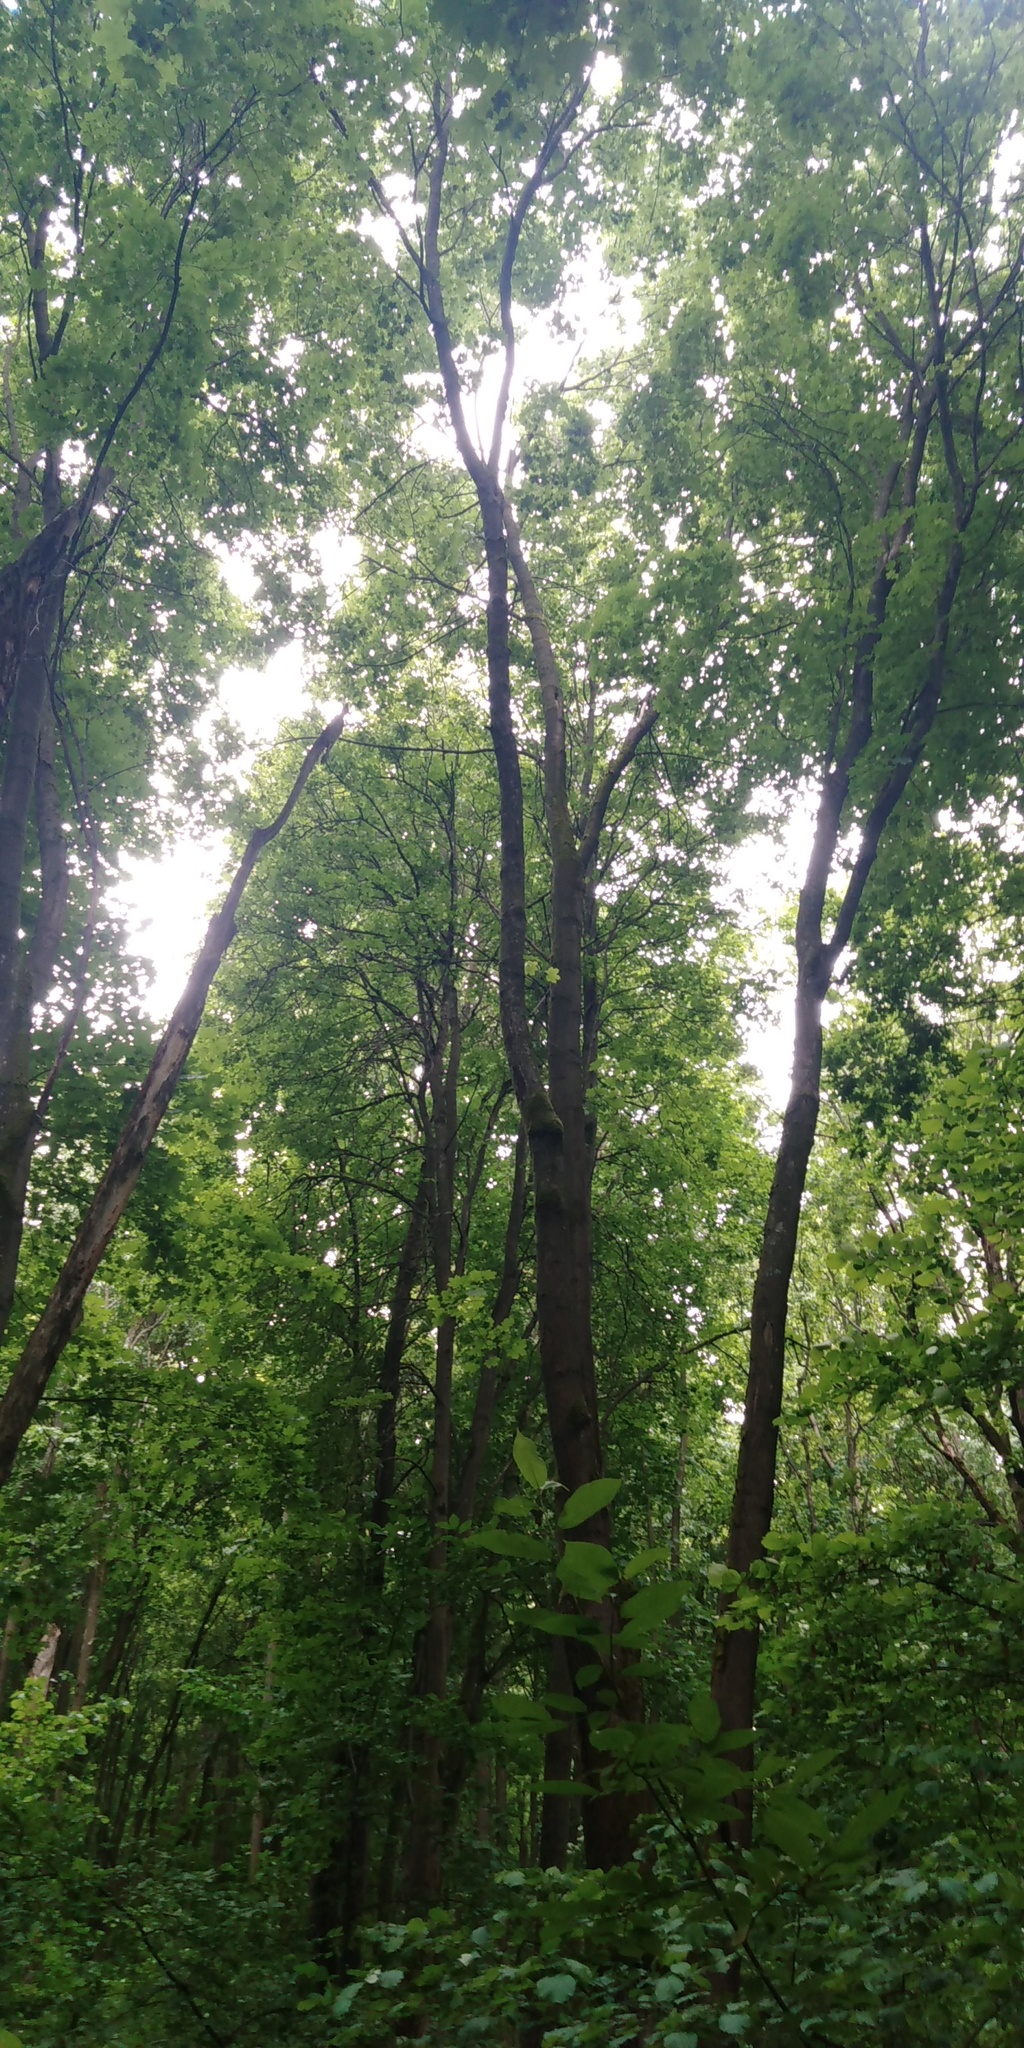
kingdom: Plantae
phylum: Tracheophyta
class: Magnoliopsida
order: Sapindales
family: Sapindaceae
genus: Acer
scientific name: Acer platanoides
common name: Norway maple
